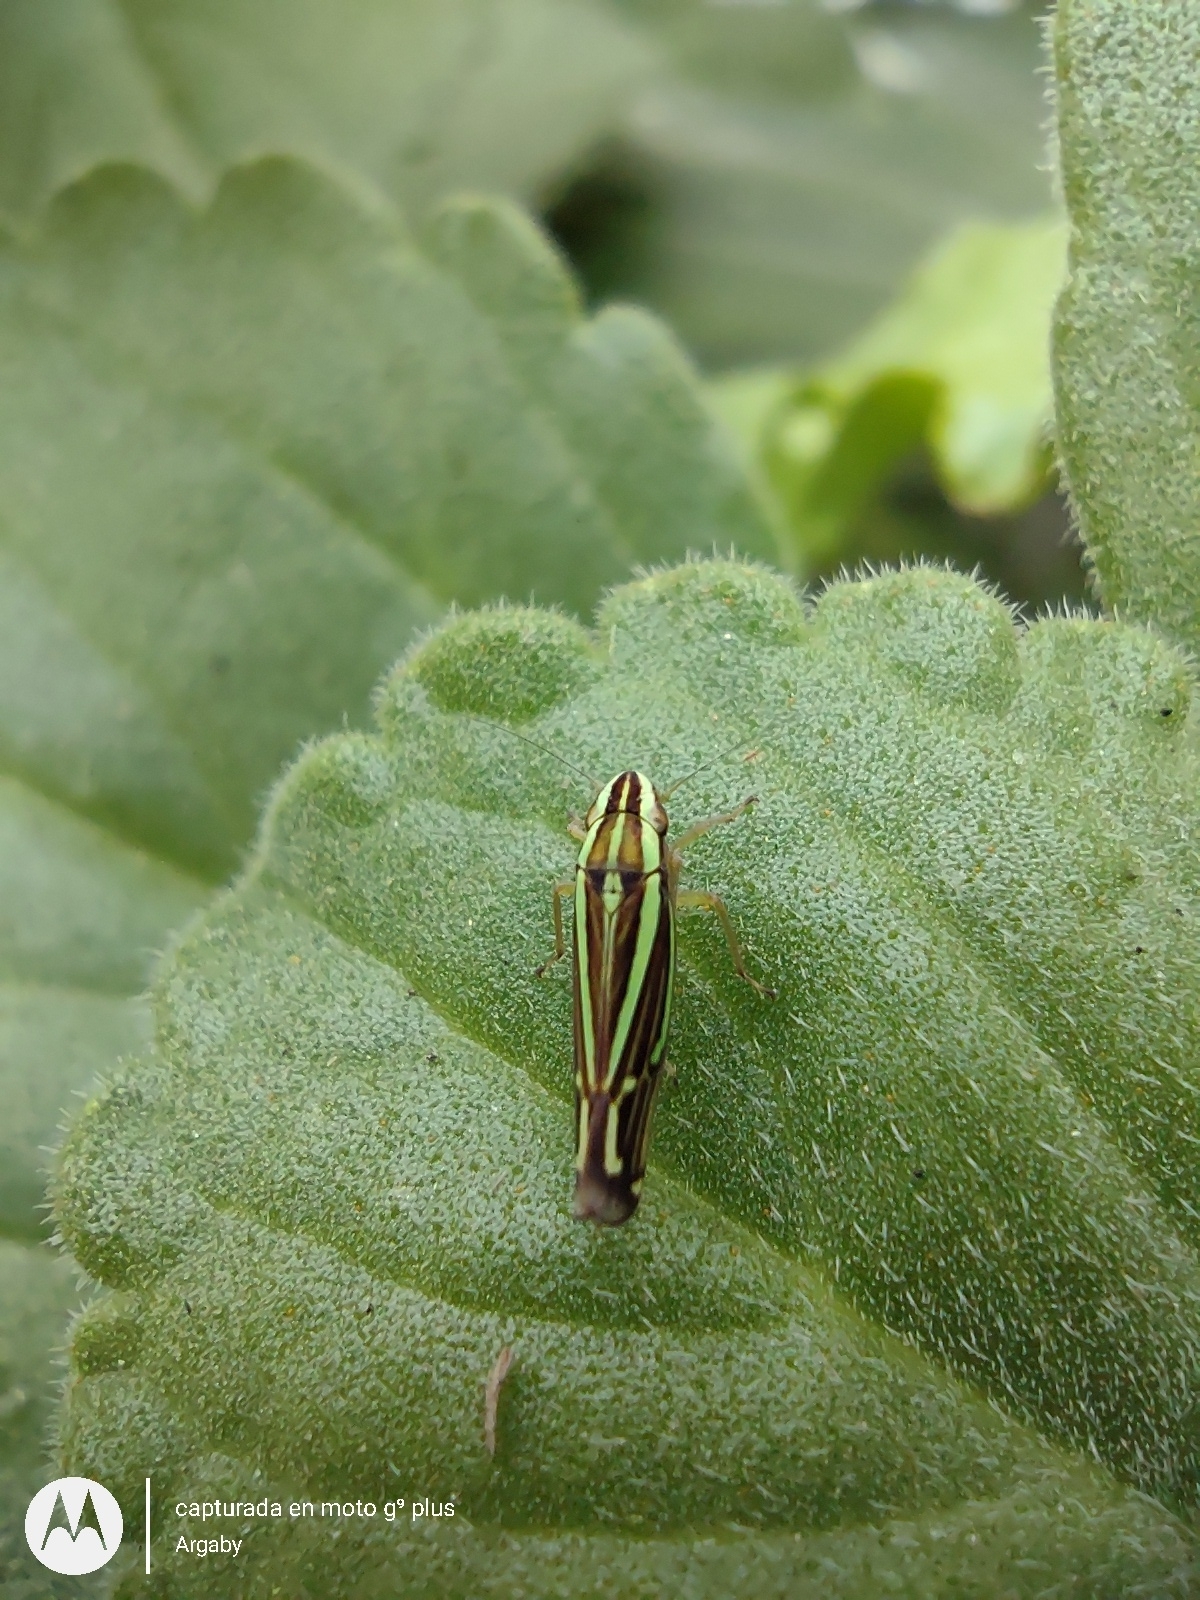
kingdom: Animalia
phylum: Arthropoda
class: Insecta
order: Hemiptera
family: Cicadellidae
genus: Sibovia
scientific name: Sibovia sagata
